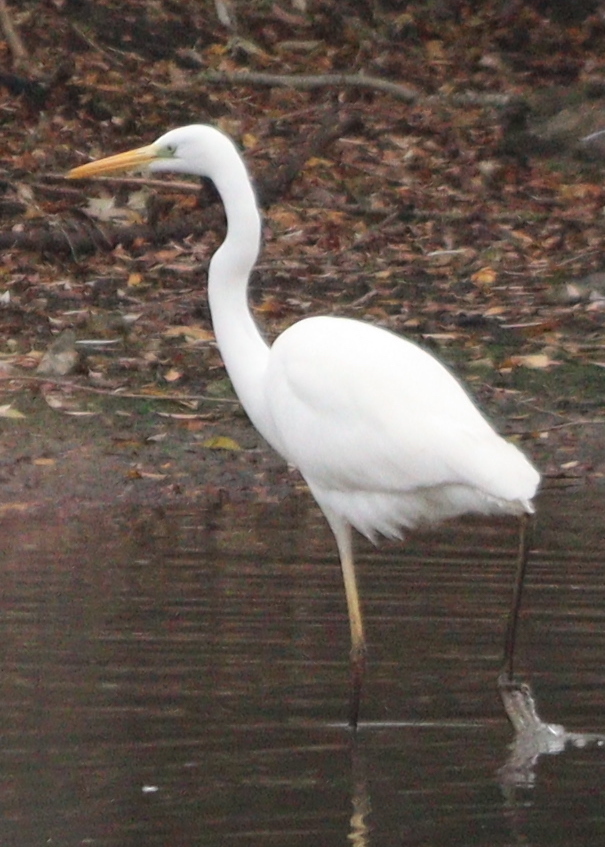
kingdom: Animalia
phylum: Chordata
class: Aves
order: Pelecaniformes
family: Ardeidae
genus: Ardea
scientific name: Ardea alba
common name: Great egret
